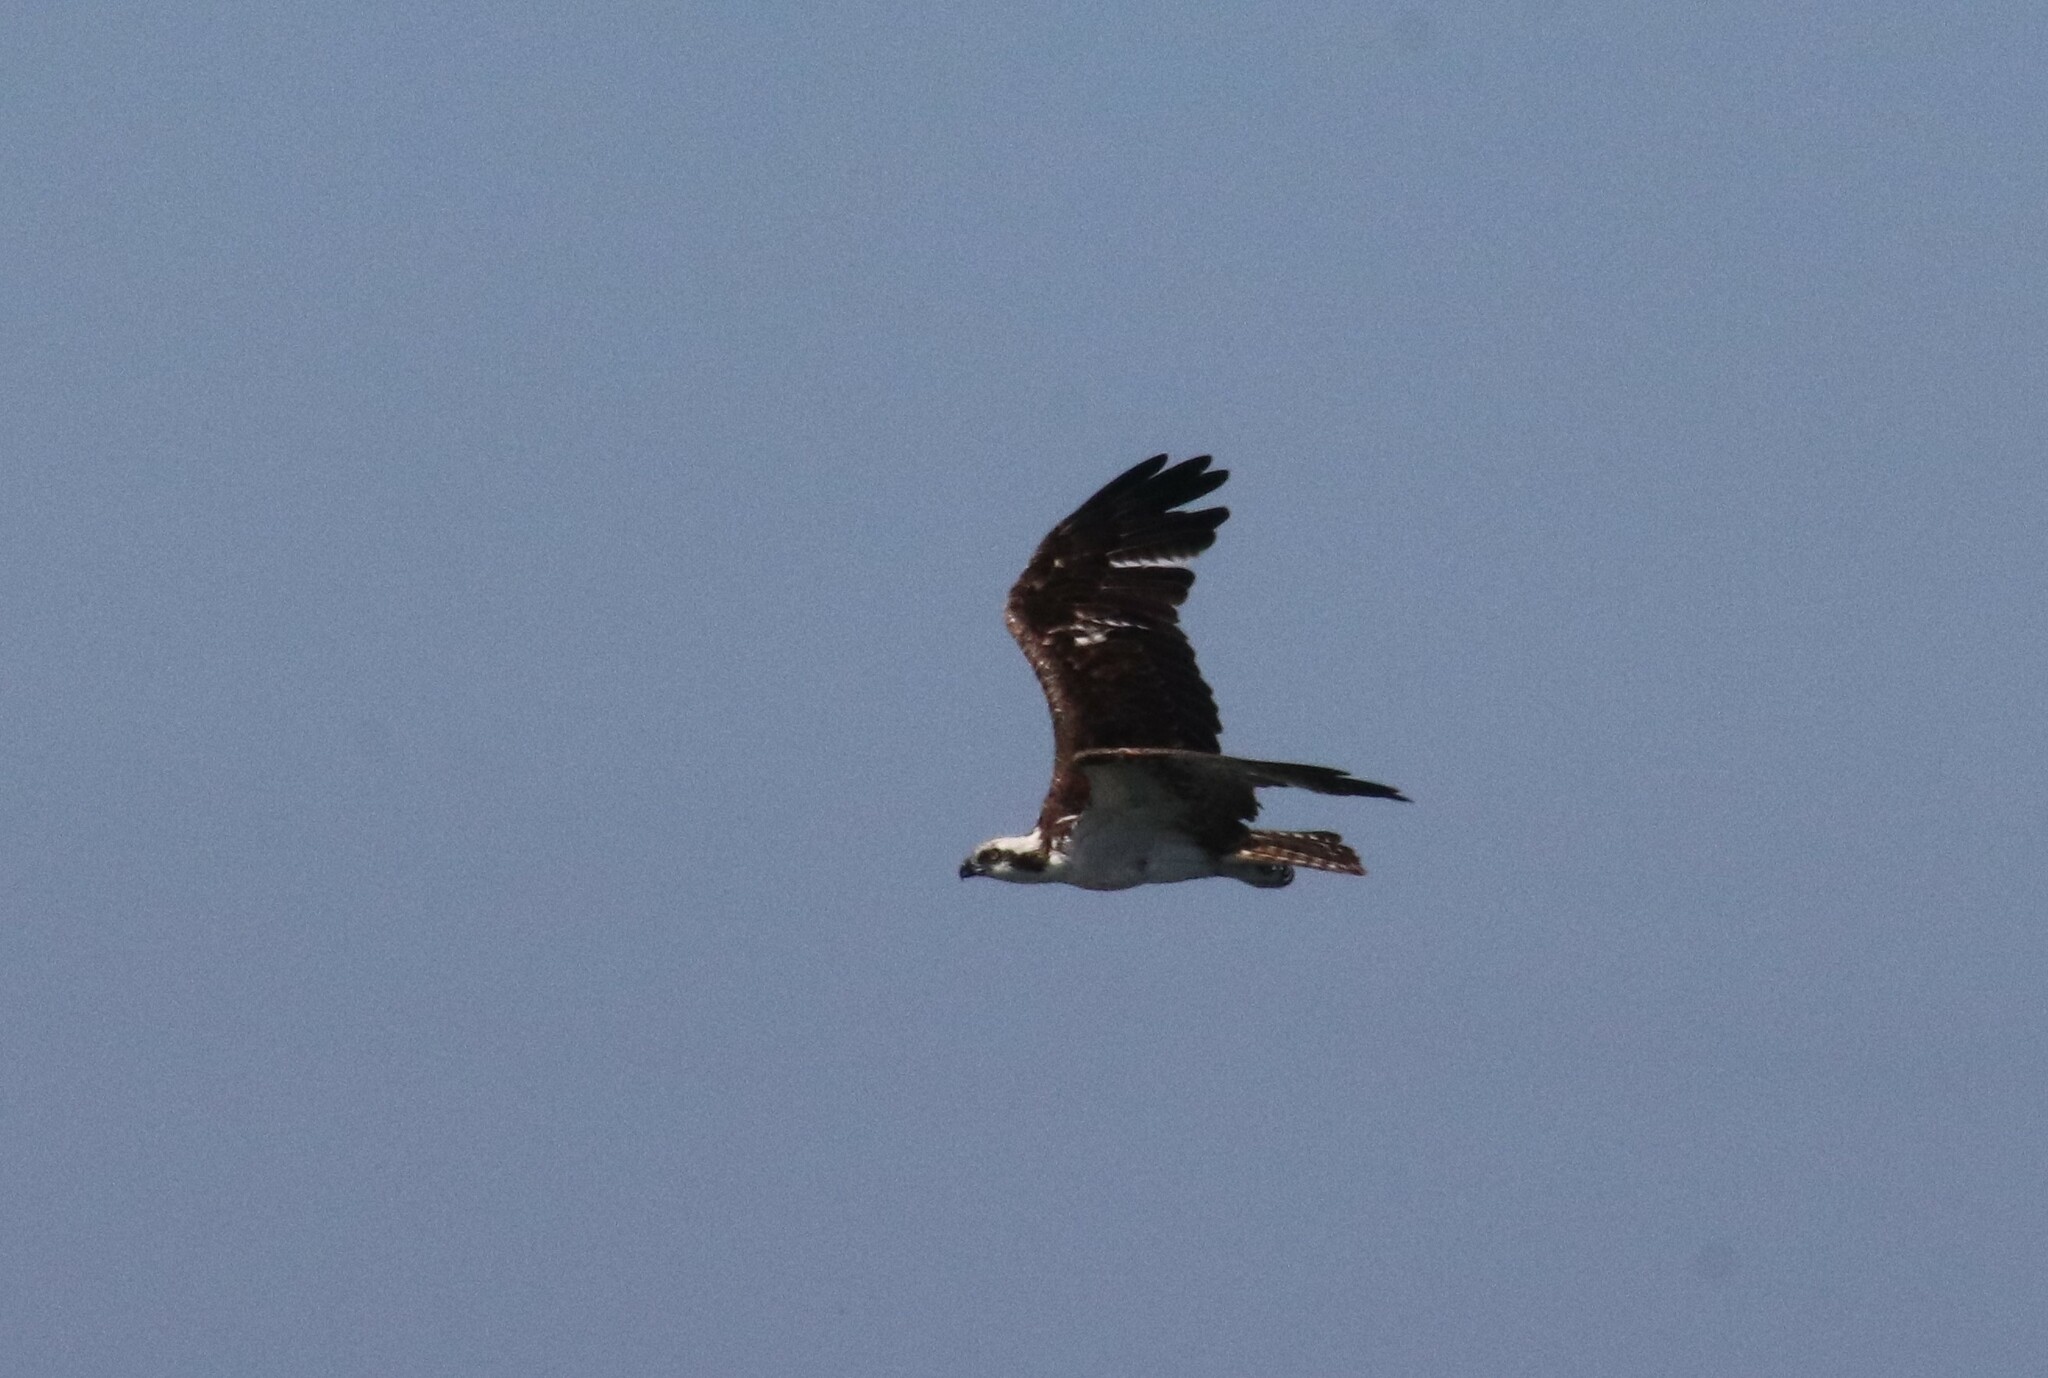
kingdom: Animalia
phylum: Chordata
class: Aves
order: Accipitriformes
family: Pandionidae
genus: Pandion
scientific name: Pandion haliaetus
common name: Osprey
